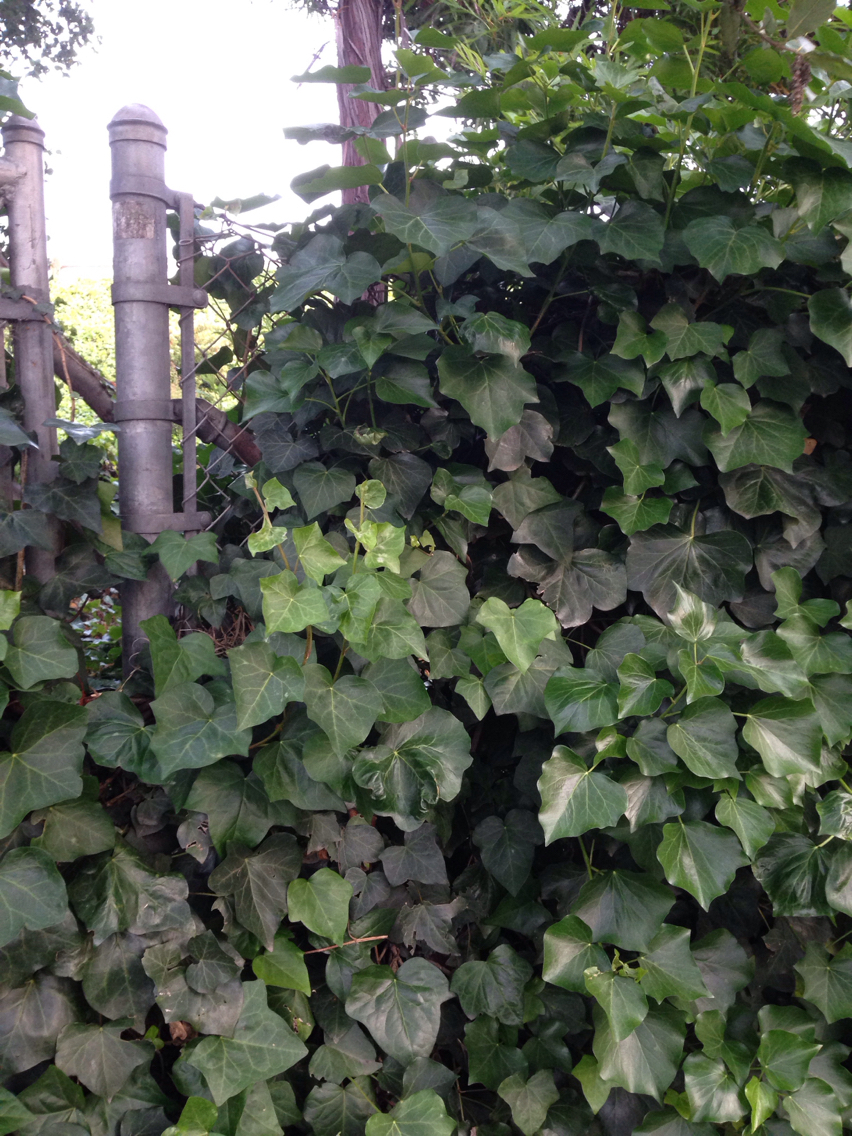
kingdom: Plantae
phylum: Tracheophyta
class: Magnoliopsida
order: Apiales
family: Araliaceae
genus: Hedera
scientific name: Hedera helix
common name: Ivy
